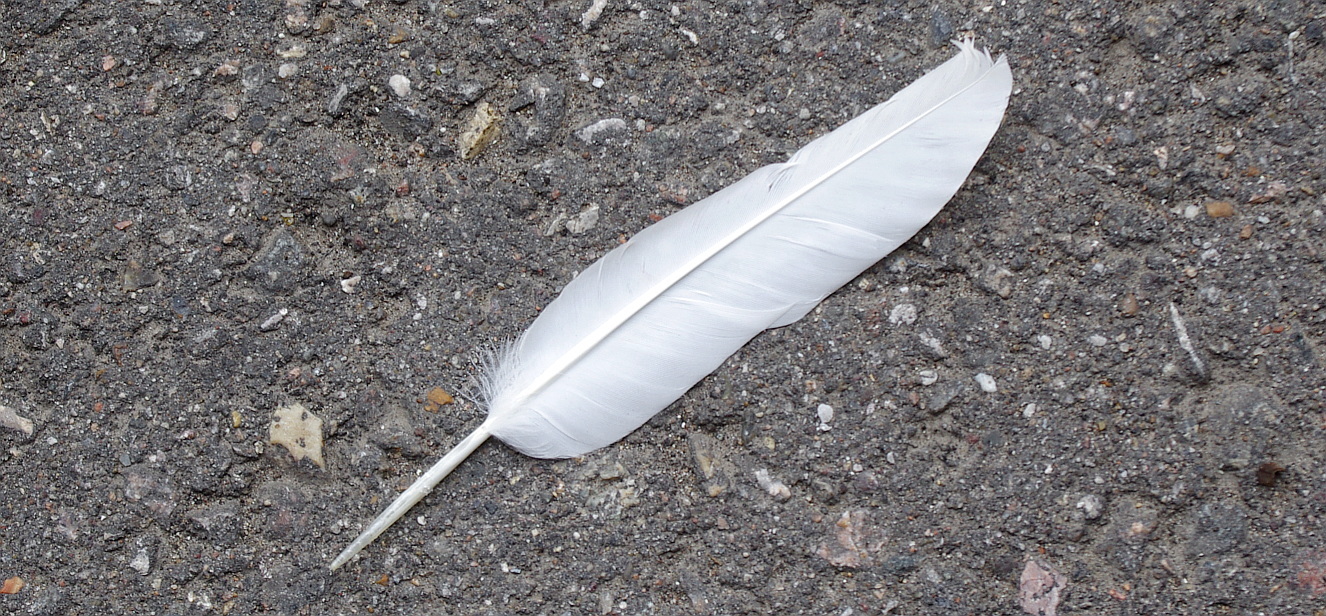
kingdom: Animalia
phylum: Chordata
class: Aves
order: Columbiformes
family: Columbidae
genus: Columba
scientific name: Columba livia
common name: Rock pigeon
